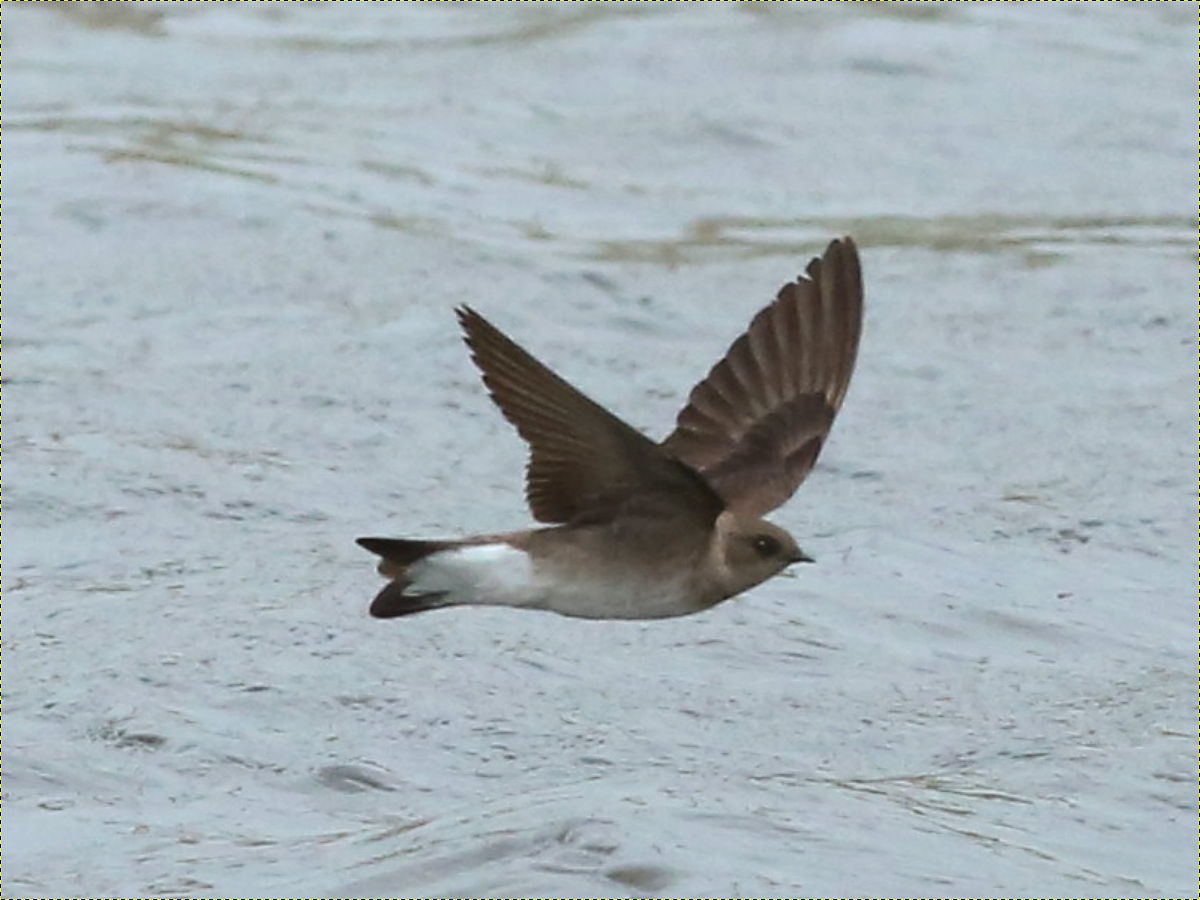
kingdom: Animalia
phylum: Chordata
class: Aves
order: Passeriformes
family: Hirundinidae
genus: Stelgidopteryx
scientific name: Stelgidopteryx serripennis
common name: Northern rough-winged swallow
